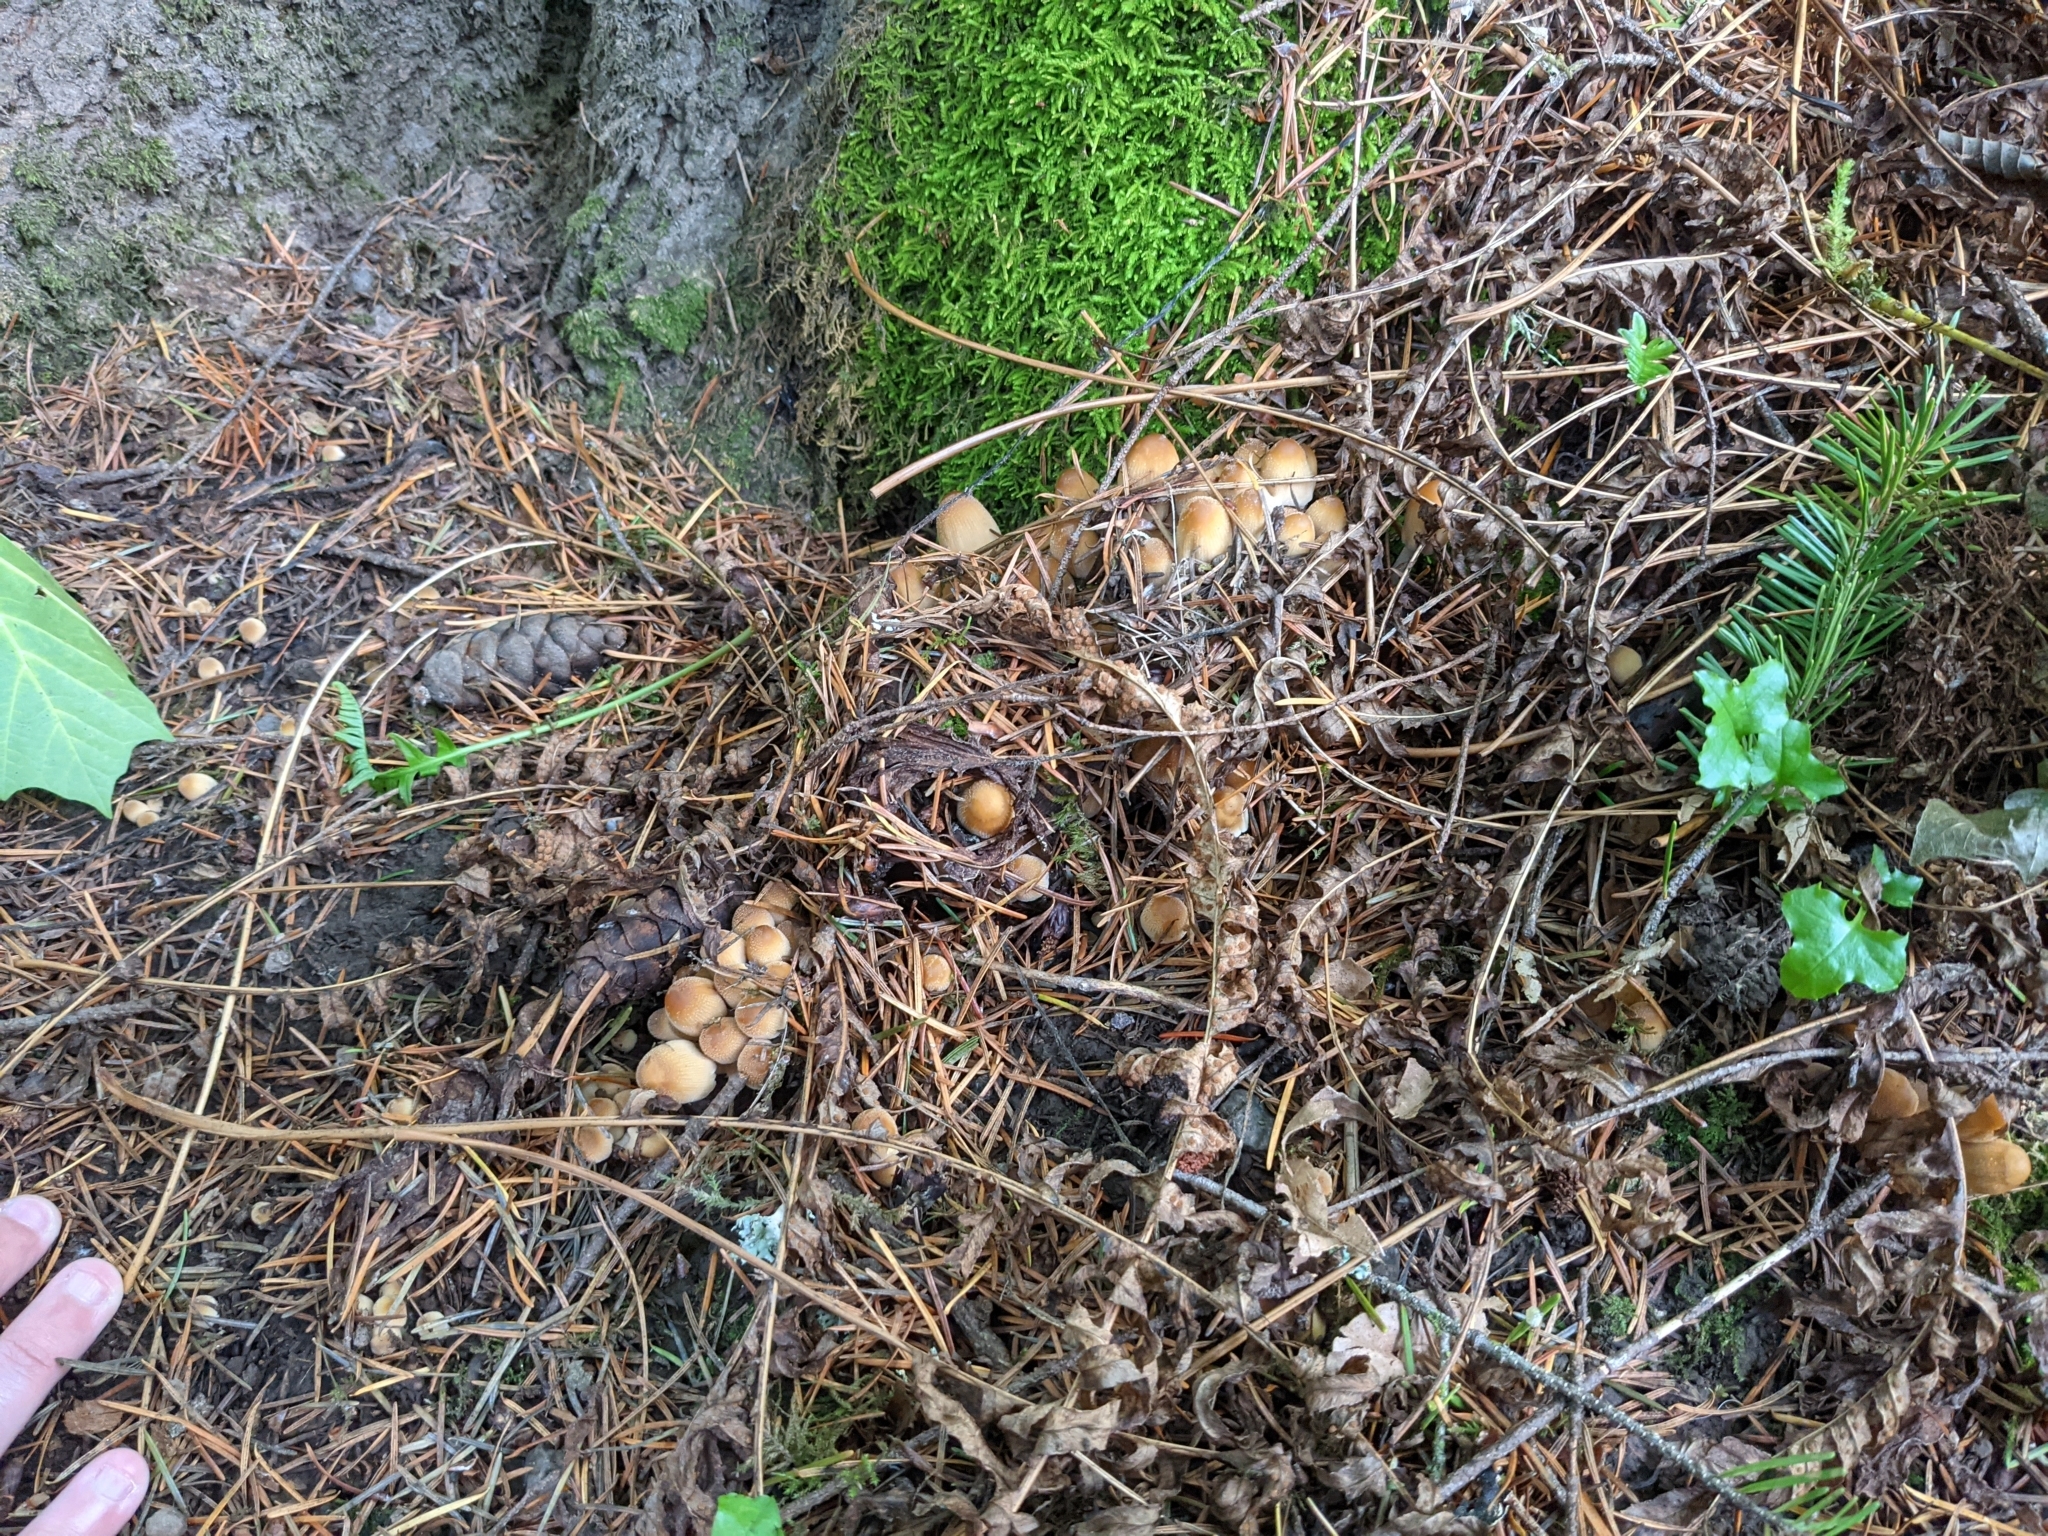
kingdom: Fungi
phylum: Basidiomycota
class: Agaricomycetes
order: Agaricales
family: Psathyrellaceae
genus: Coprinellus
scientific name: Coprinellus micaceus
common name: Glistening ink-cap
